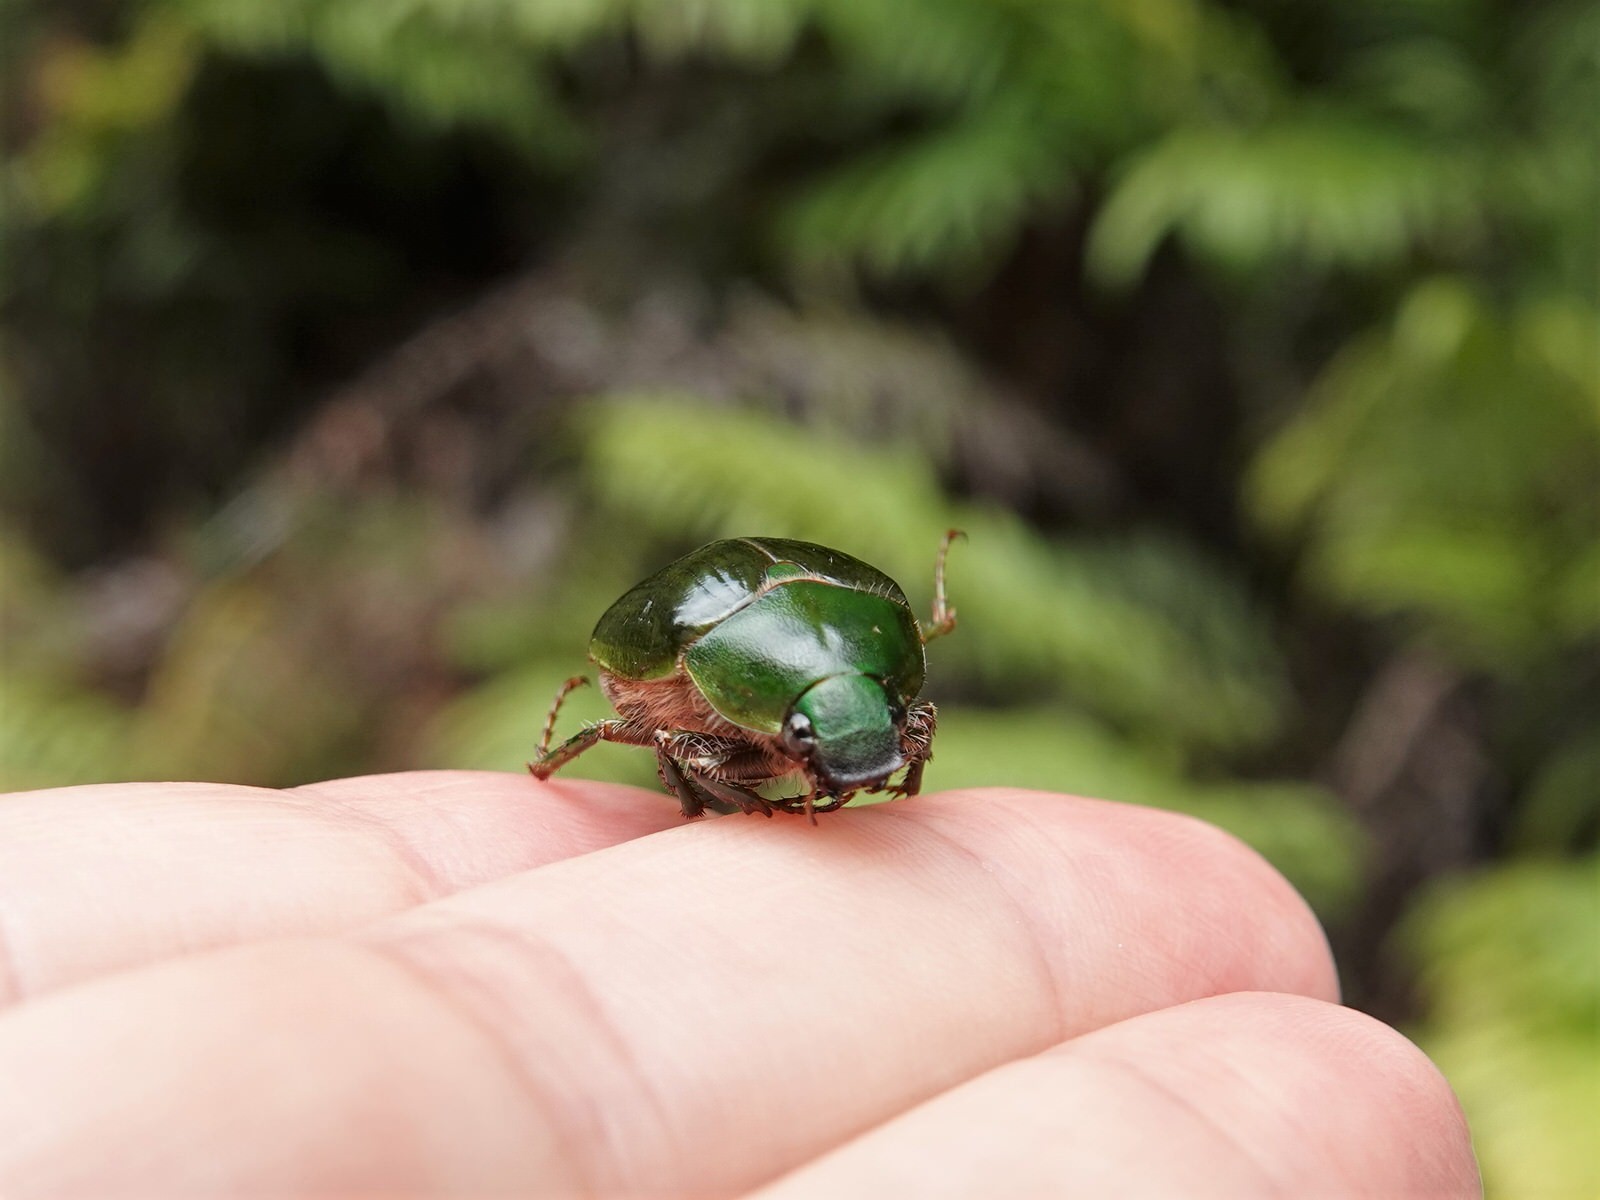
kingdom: Animalia
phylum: Arthropoda
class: Insecta
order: Coleoptera
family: Scarabaeidae
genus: Stethaspis
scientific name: Stethaspis longicornis
